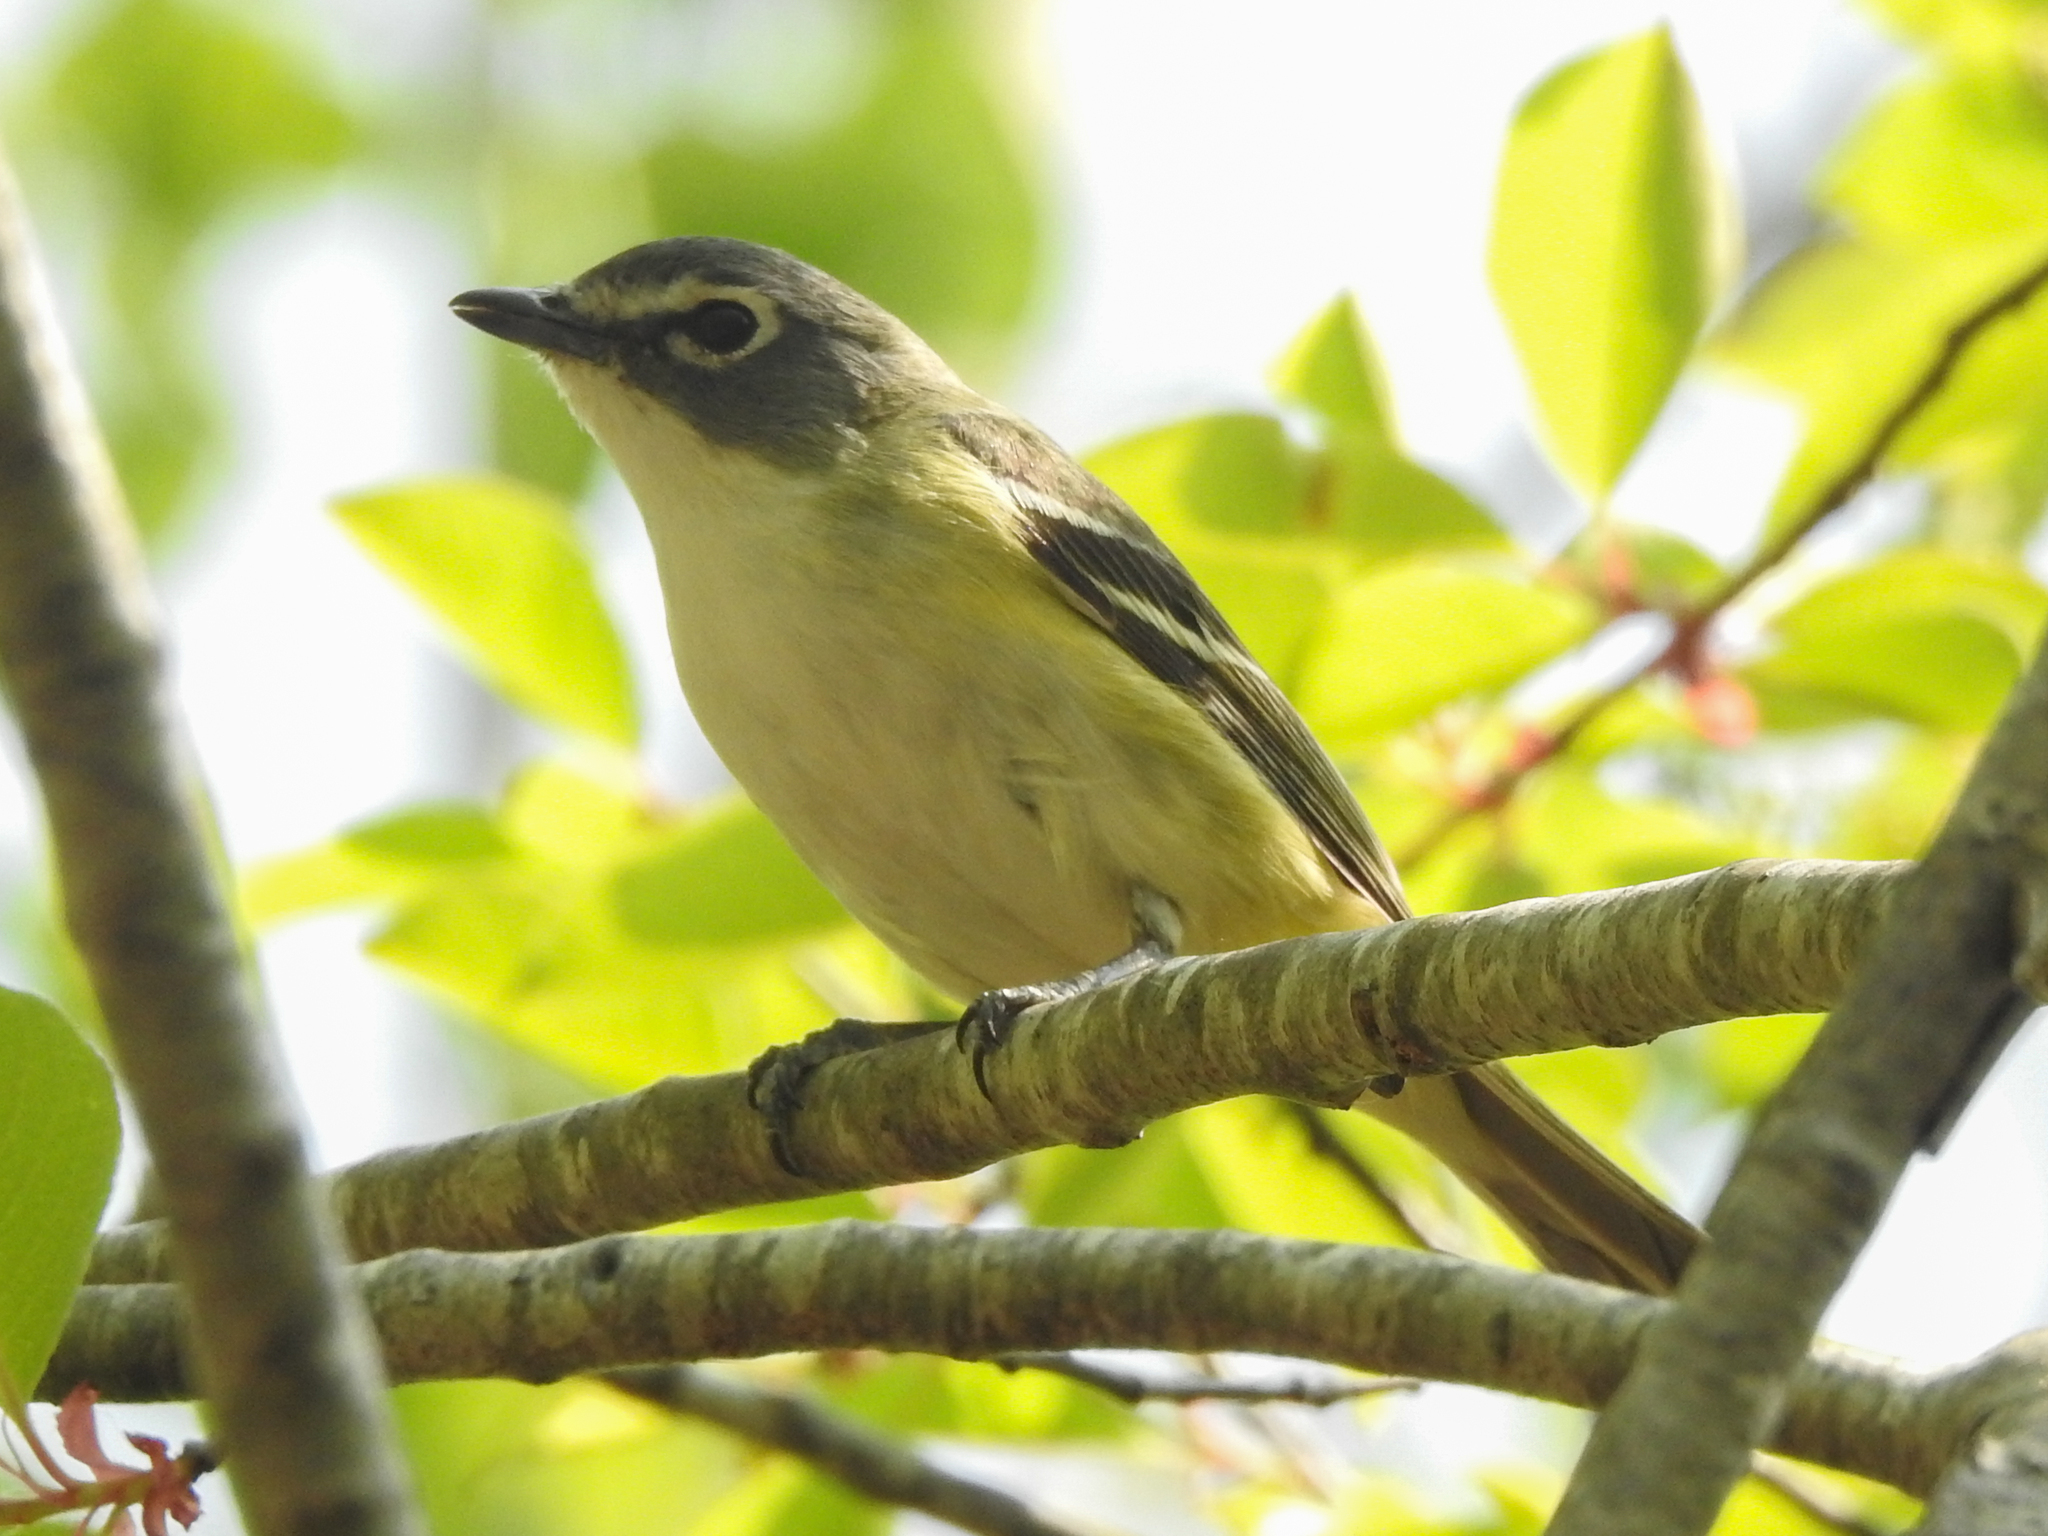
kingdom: Animalia
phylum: Chordata
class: Aves
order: Passeriformes
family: Vireonidae
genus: Vireo
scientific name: Vireo solitarius
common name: Blue-headed vireo
